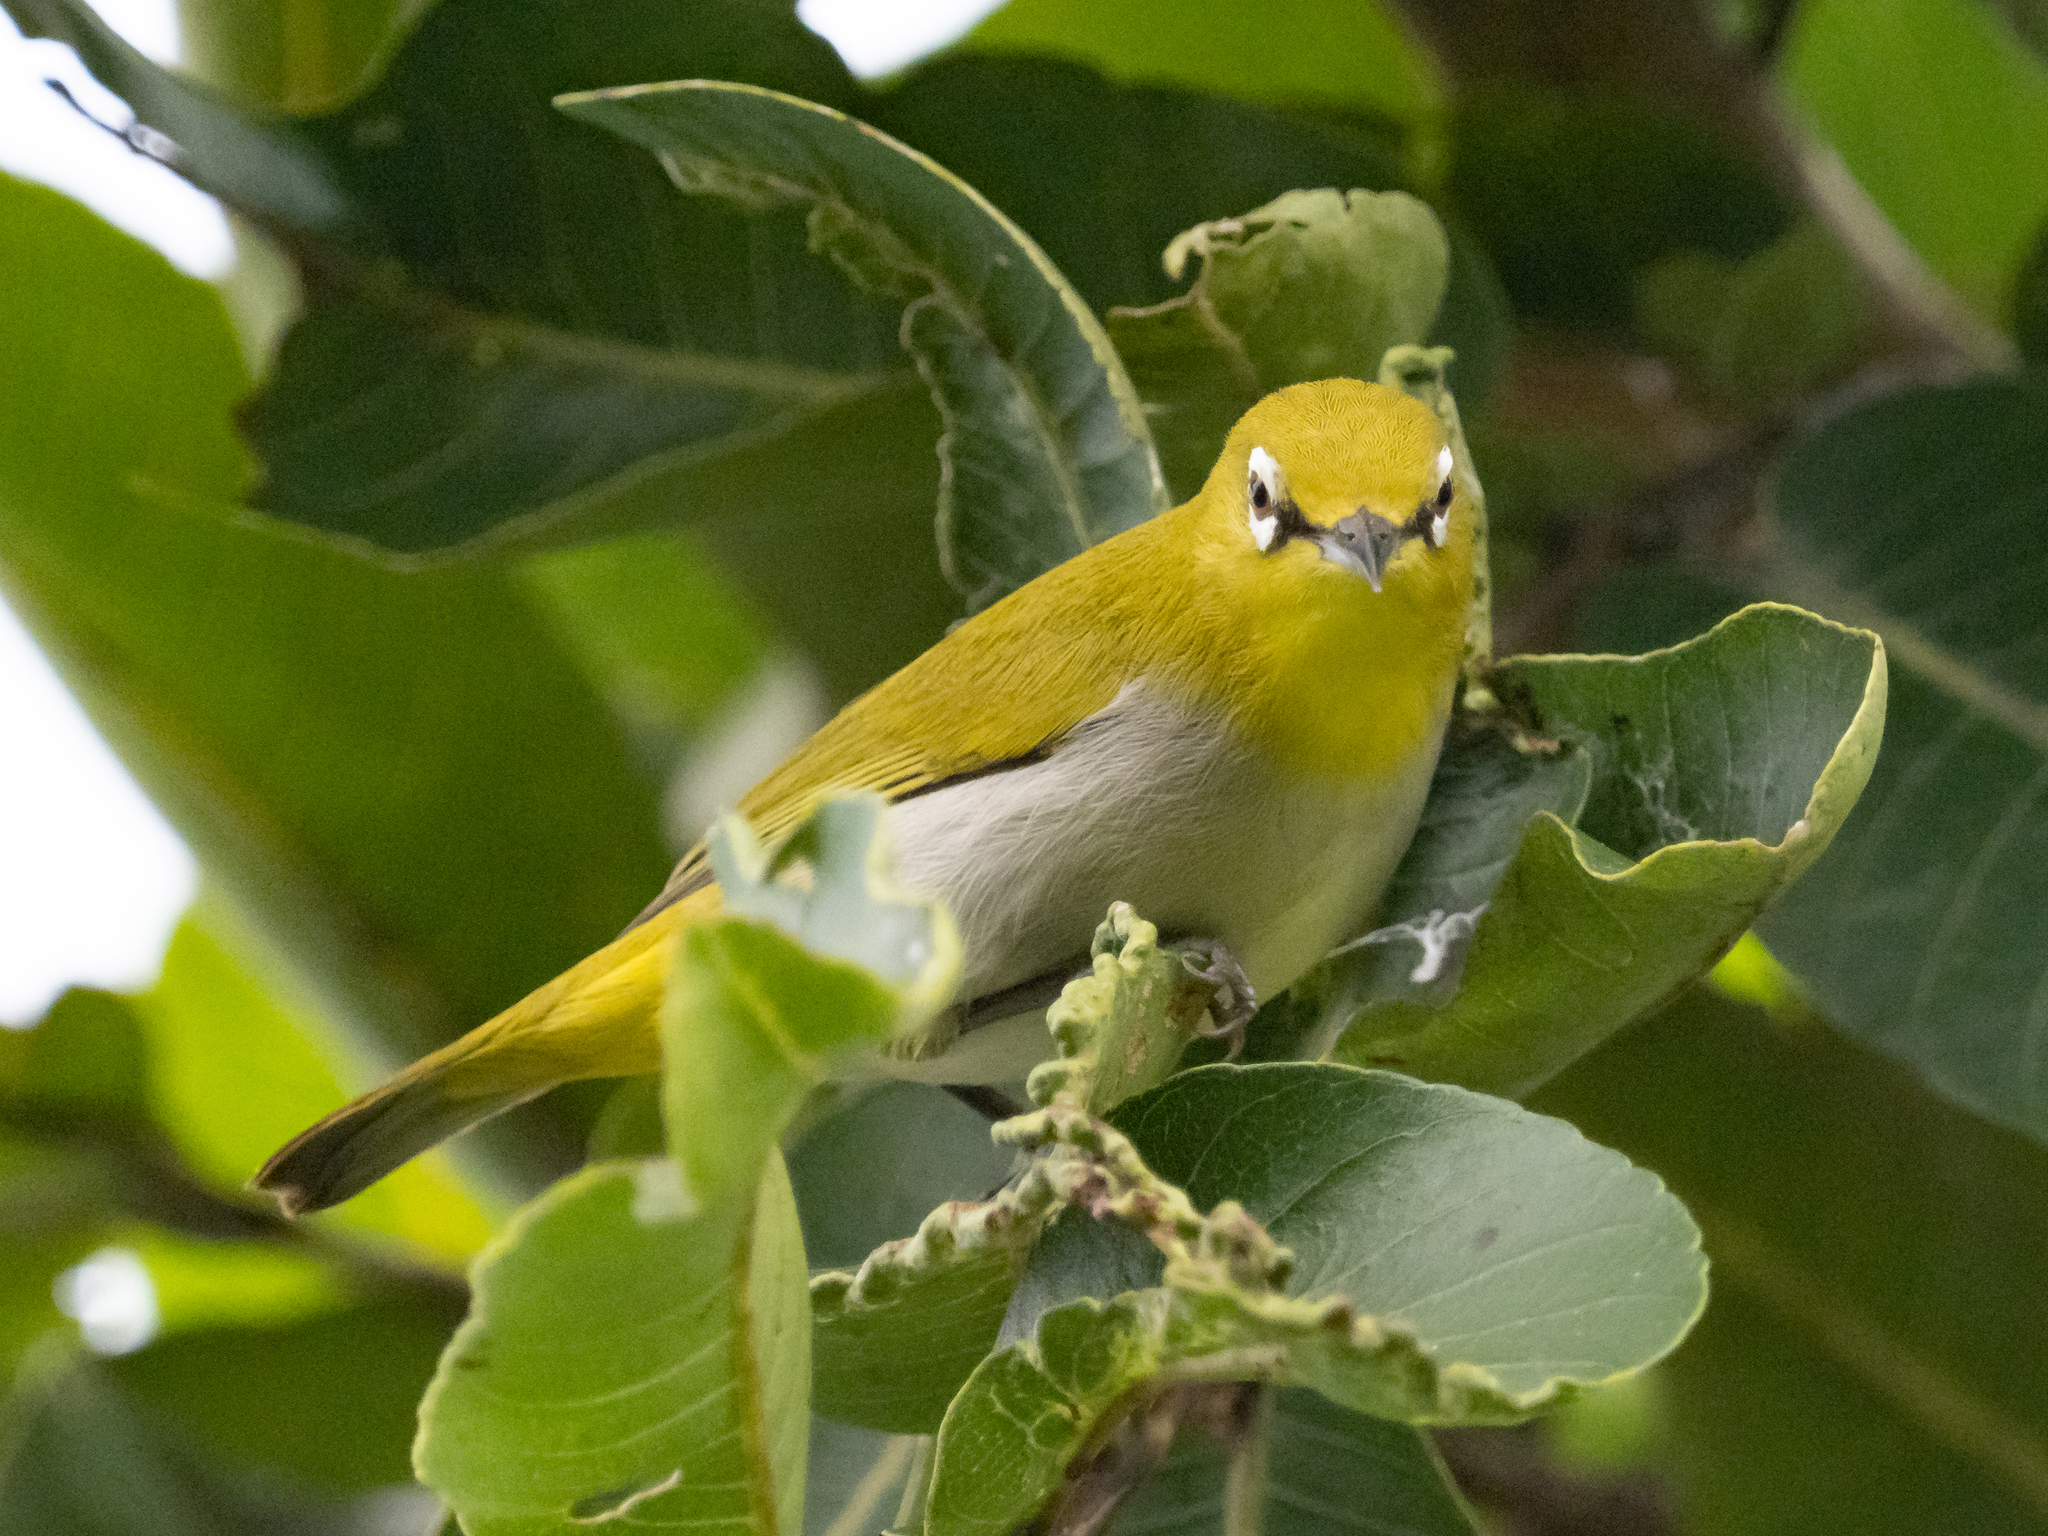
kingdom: Animalia
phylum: Chordata
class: Aves
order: Passeriformes
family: Zosteropidae
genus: Zosterops
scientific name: Zosterops palpebrosus
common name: Oriental white-eye
